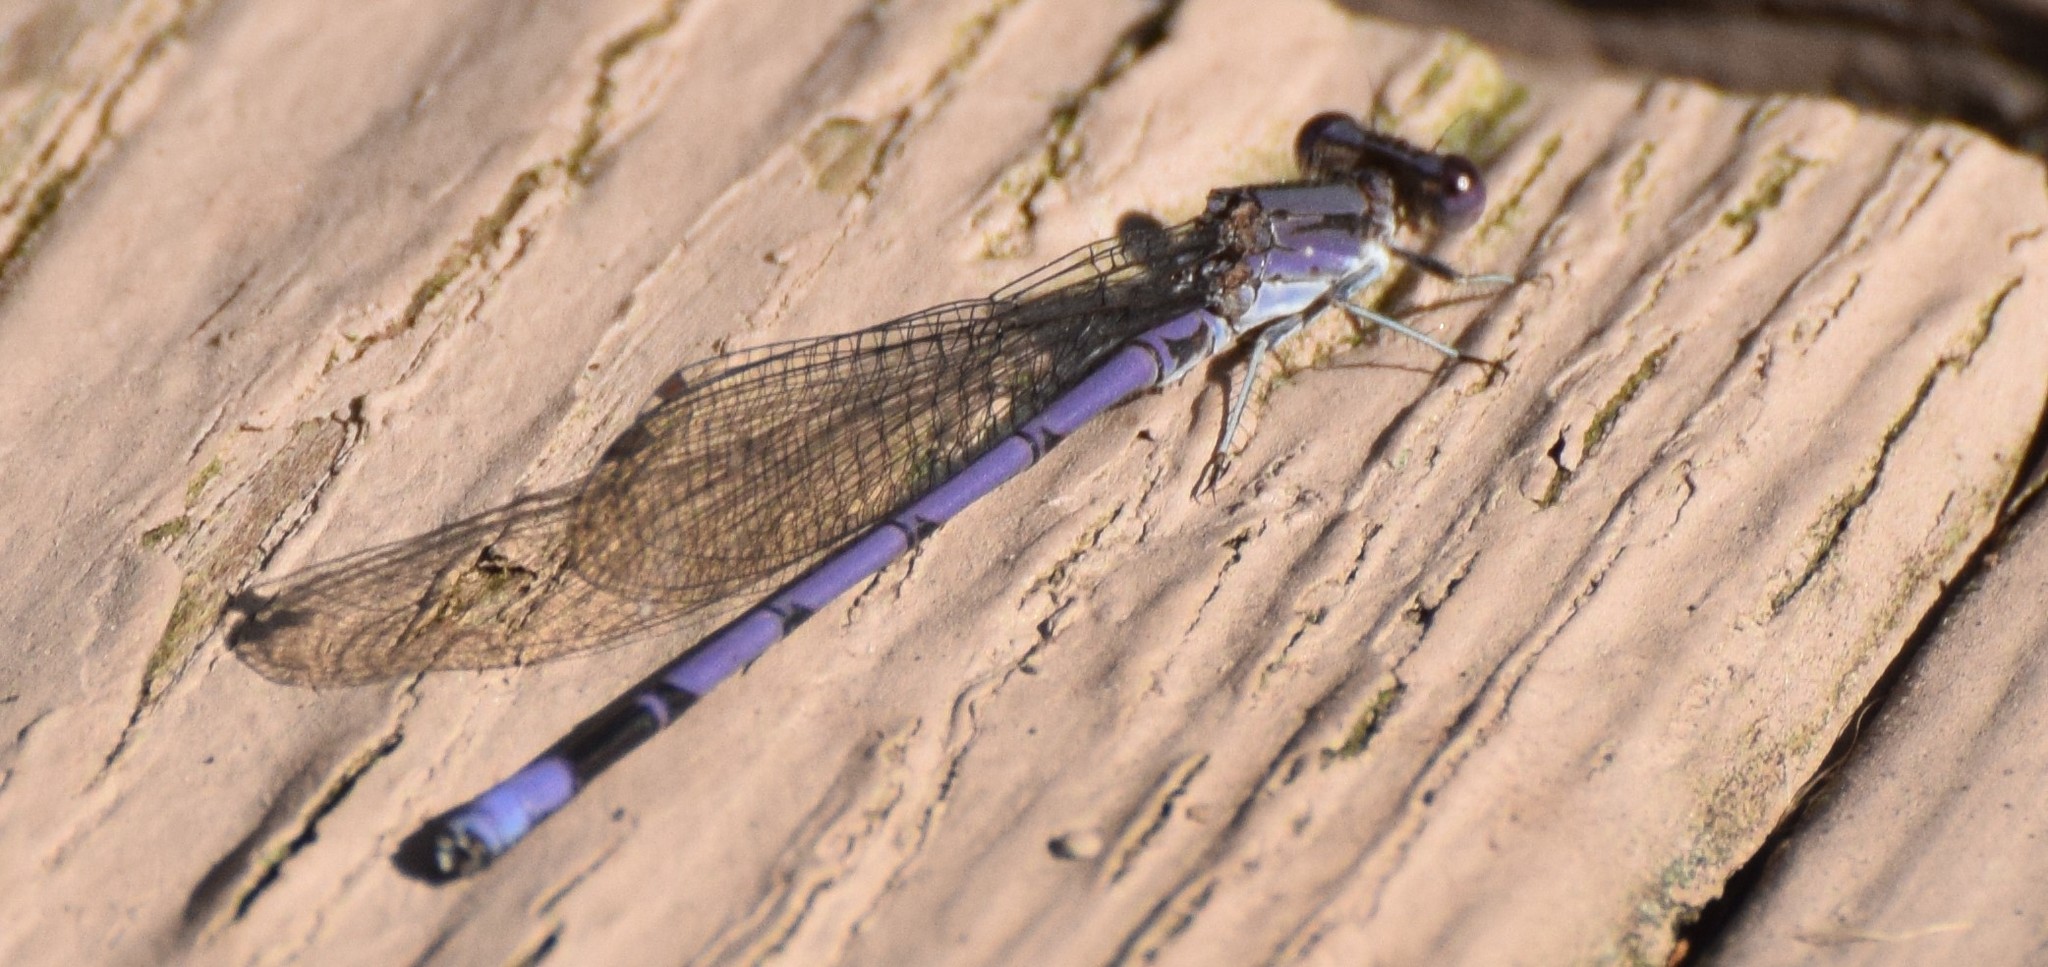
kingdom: Animalia
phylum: Arthropoda
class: Insecta
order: Odonata
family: Coenagrionidae
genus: Argia
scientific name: Argia fumipennis
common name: Variable dancer
